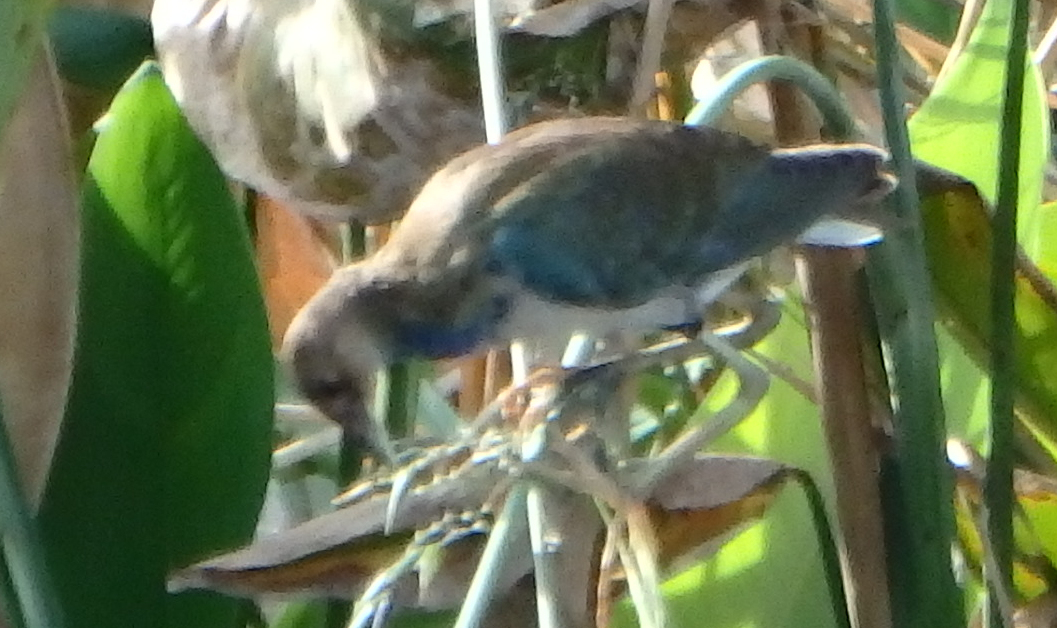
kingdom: Animalia
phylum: Chordata
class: Aves
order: Gruiformes
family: Rallidae
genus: Porphyrio
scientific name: Porphyrio martinica
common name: Purple gallinule
